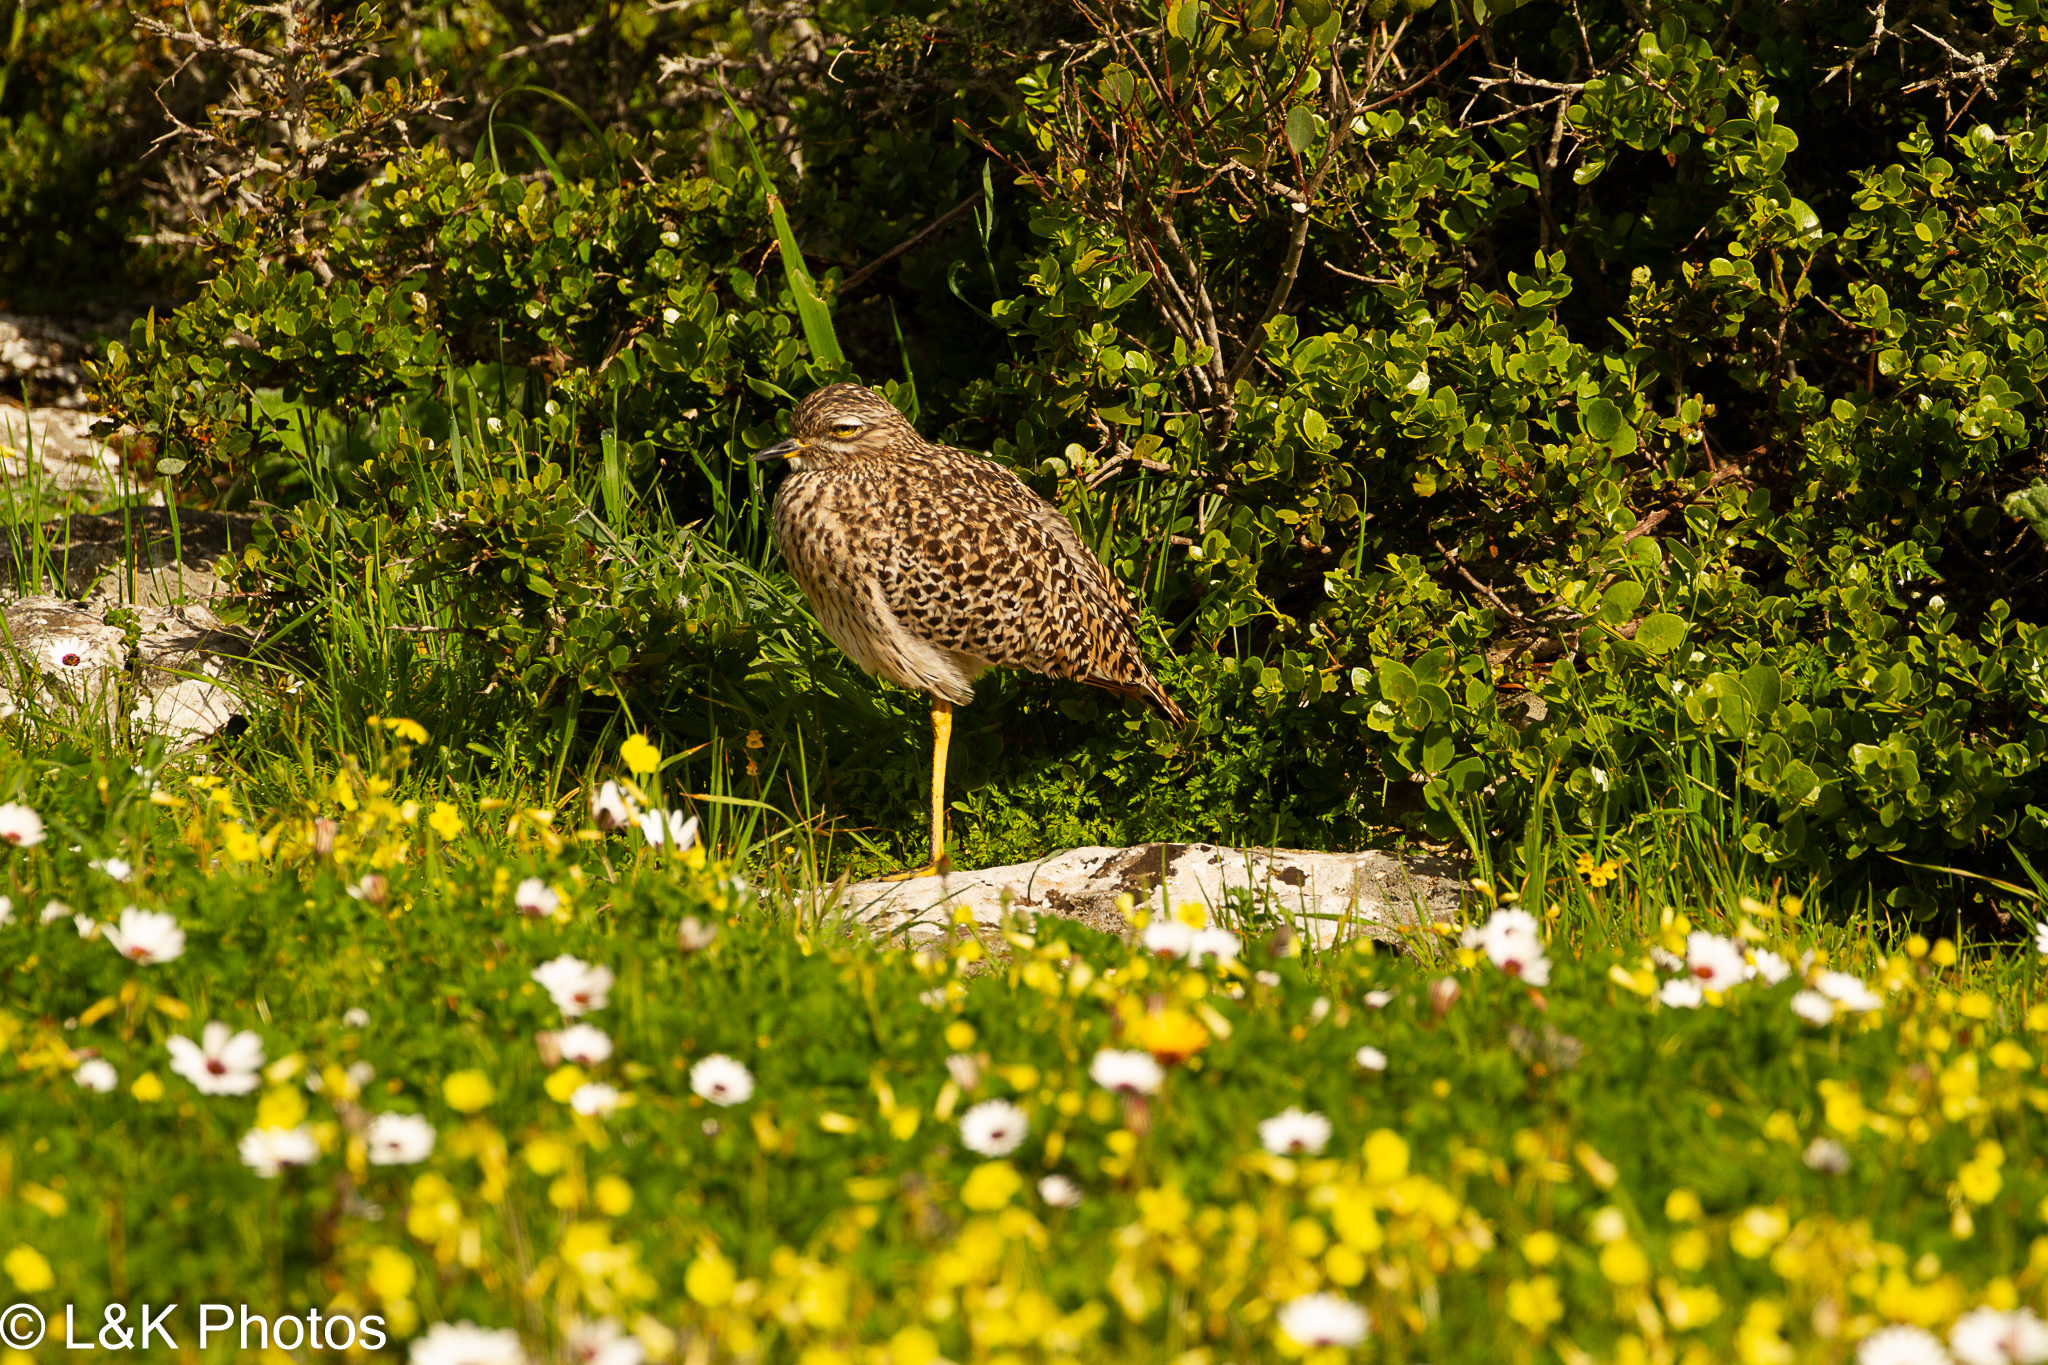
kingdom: Animalia
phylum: Chordata
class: Aves
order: Charadriiformes
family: Burhinidae
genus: Burhinus
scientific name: Burhinus capensis
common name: Spotted thick-knee
